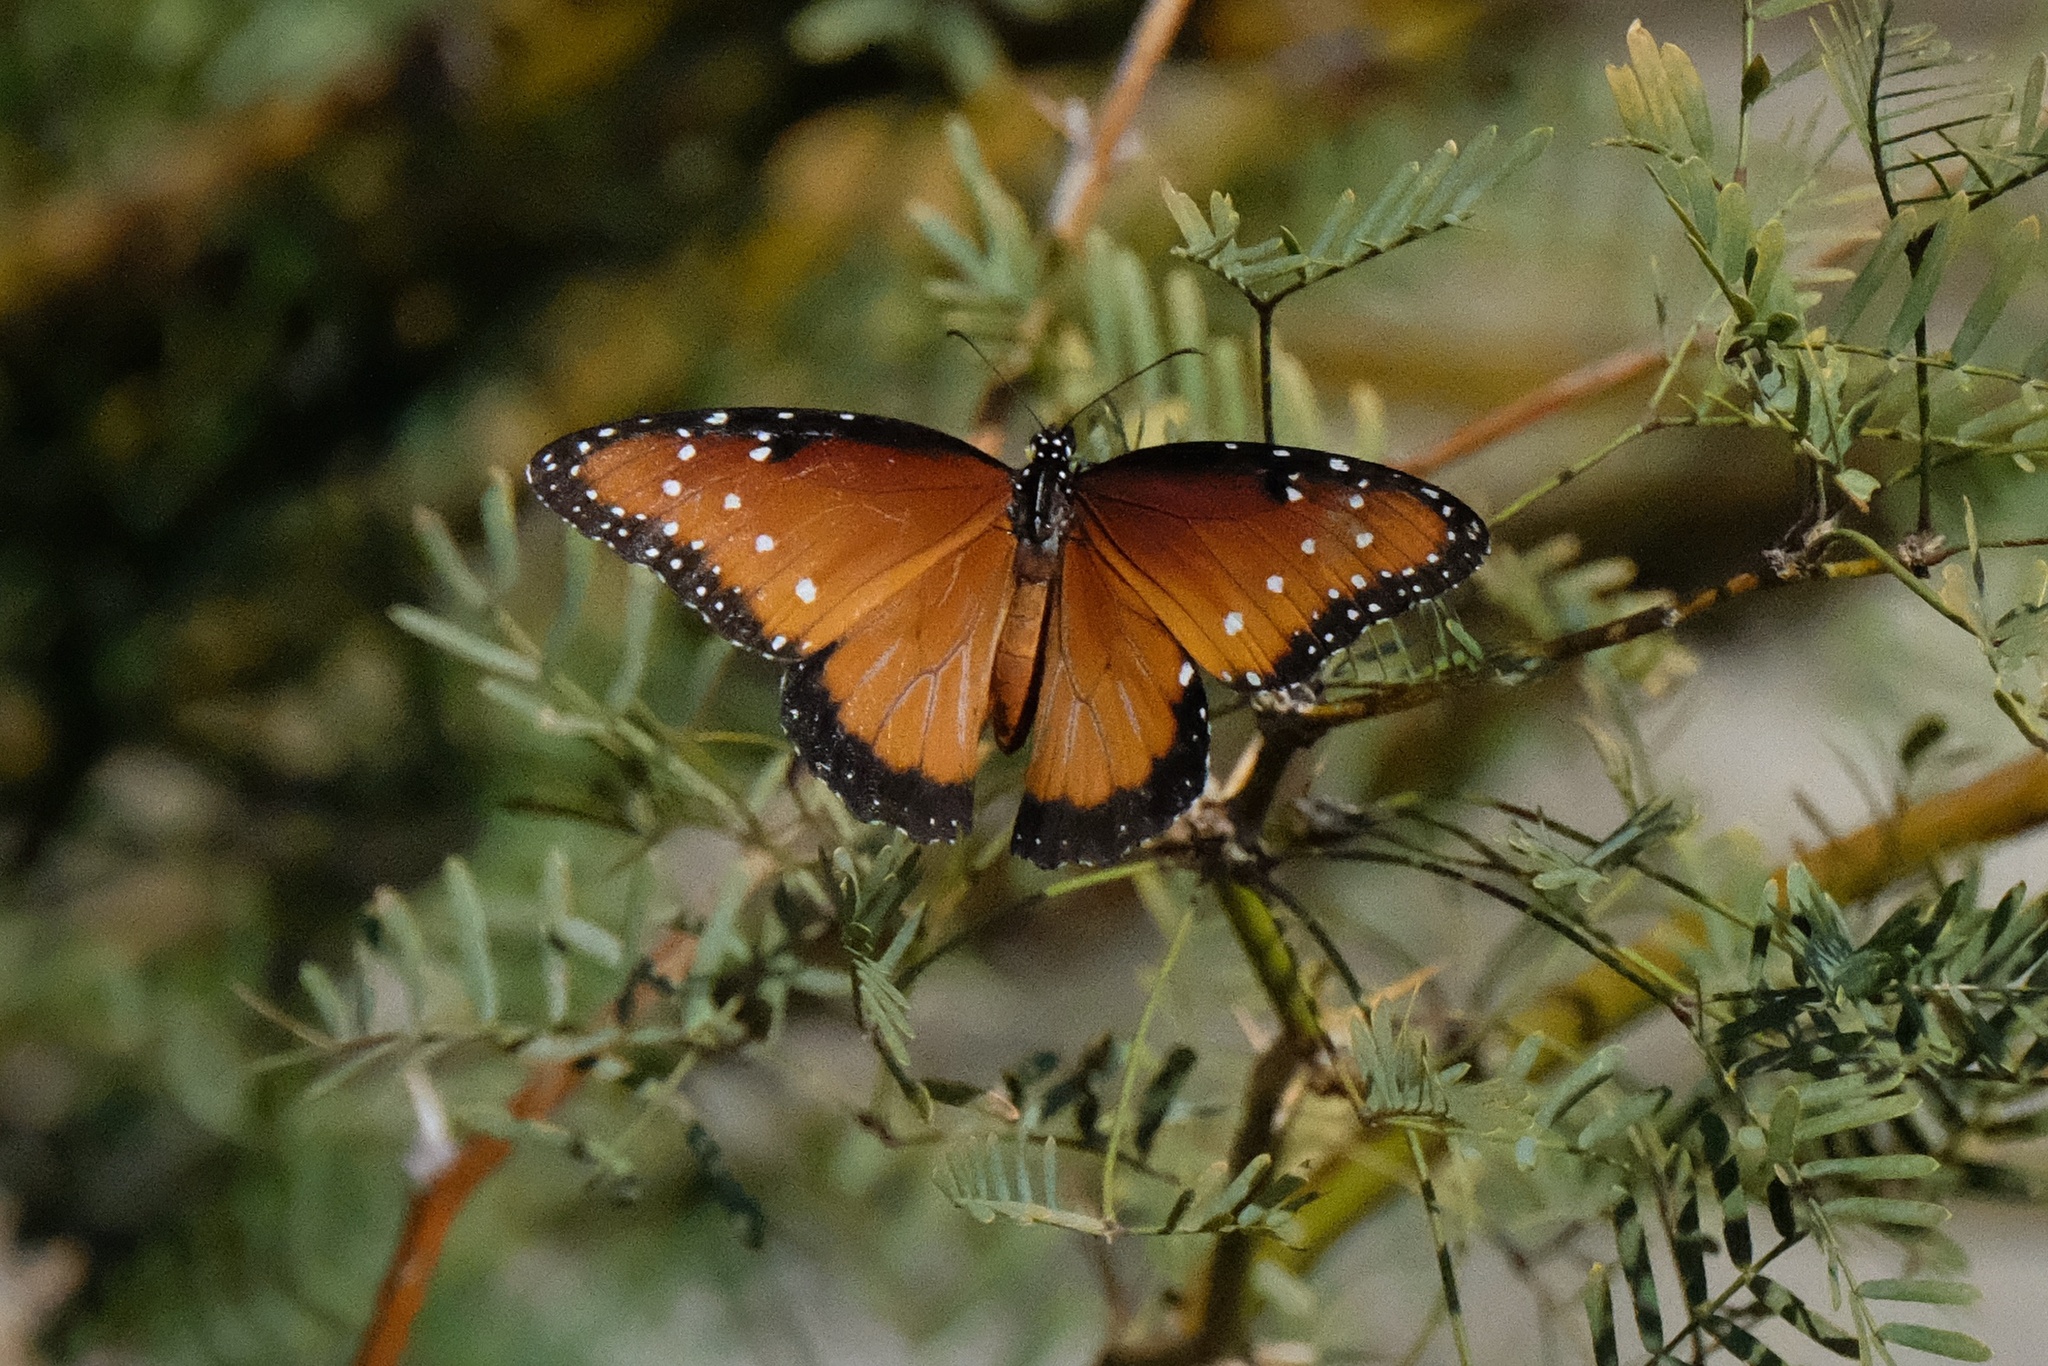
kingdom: Animalia
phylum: Arthropoda
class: Insecta
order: Lepidoptera
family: Nymphalidae
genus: Danaus
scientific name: Danaus gilippus
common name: Queen
